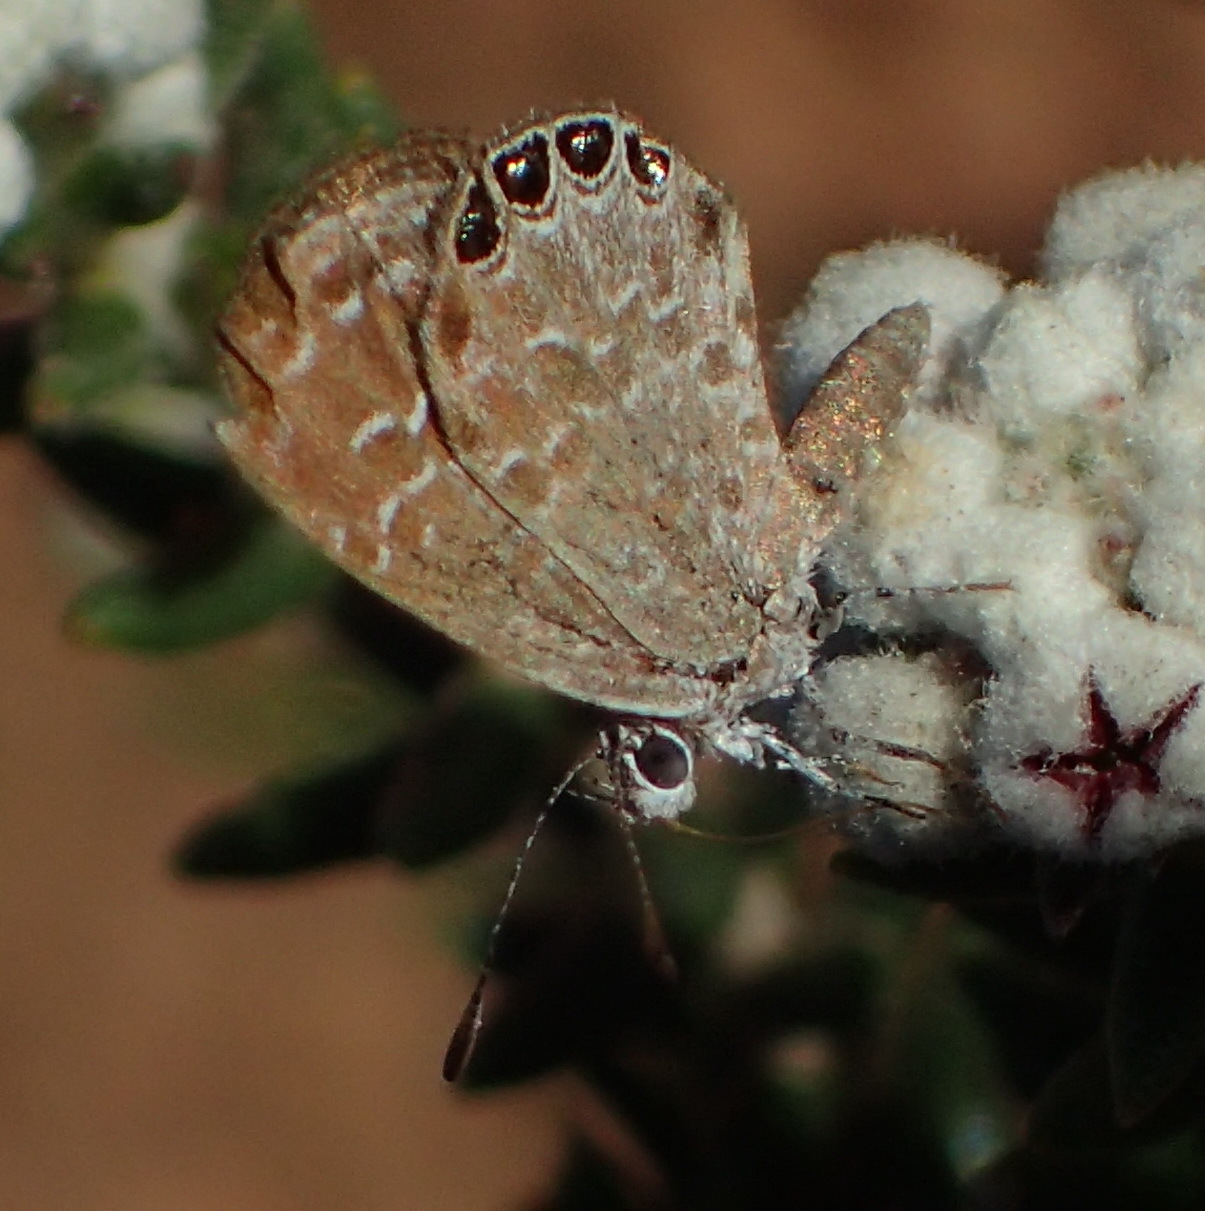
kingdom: Animalia
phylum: Arthropoda
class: Insecta
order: Lepidoptera
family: Lycaenidae
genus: Oraidium
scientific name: Oraidium barberae
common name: Dwarf blue
